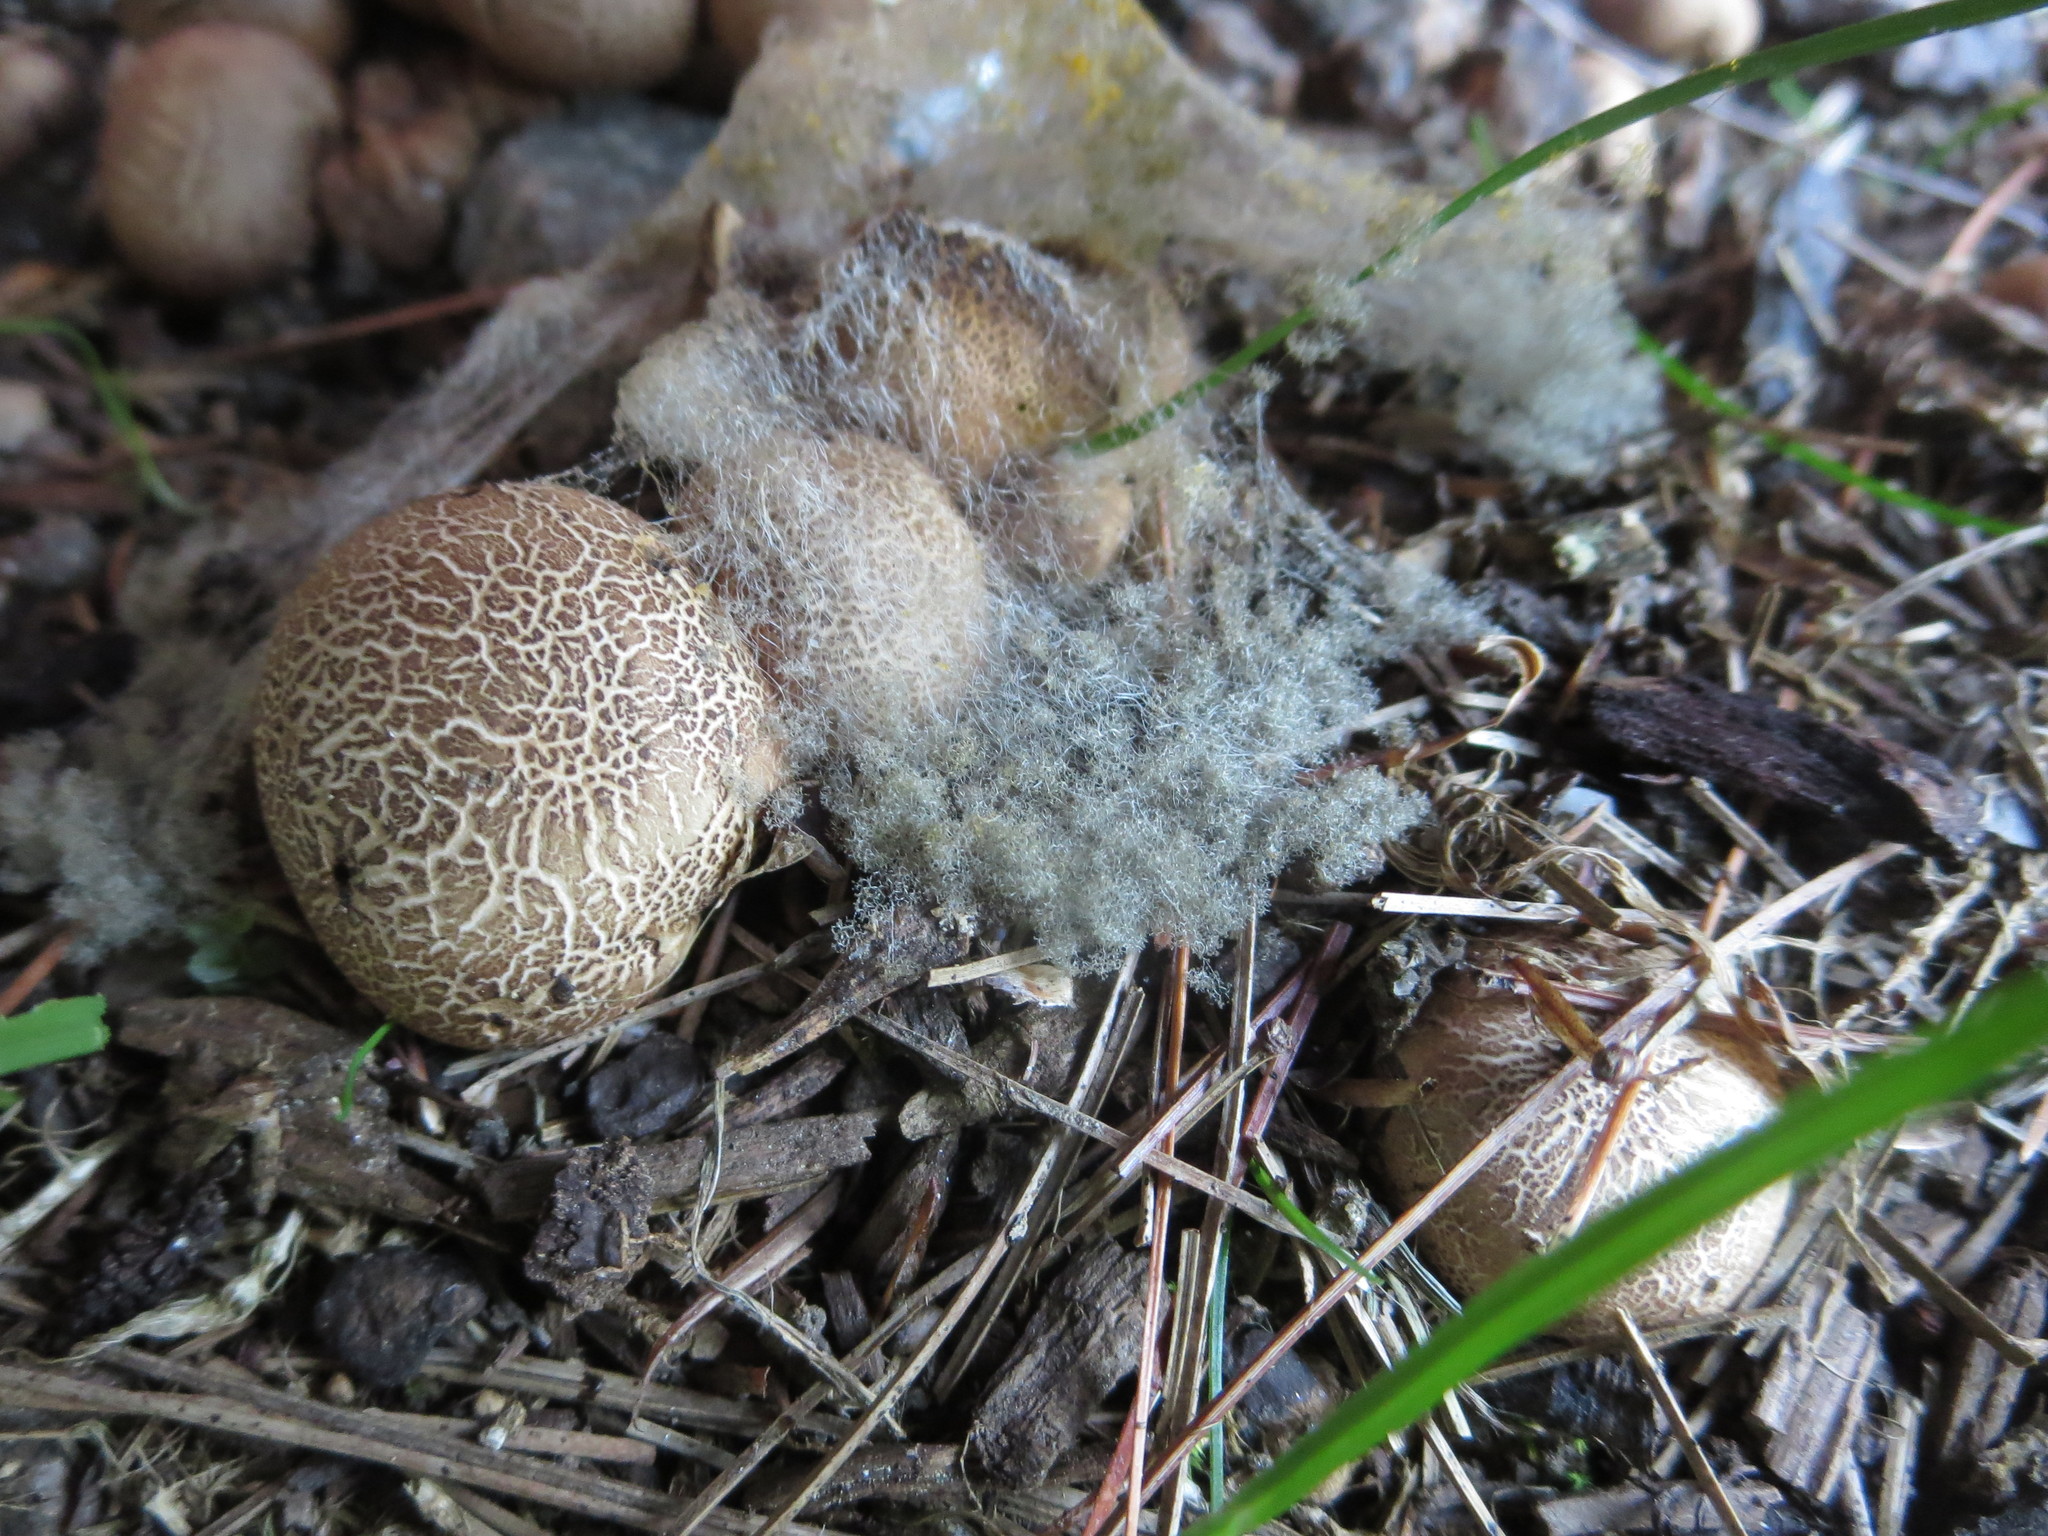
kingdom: Fungi
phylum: Mucoromycota
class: Mucoromycetes
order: Mucorales
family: Rhizopodaceae
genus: Syzygites
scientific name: Syzygites megalocarpus
